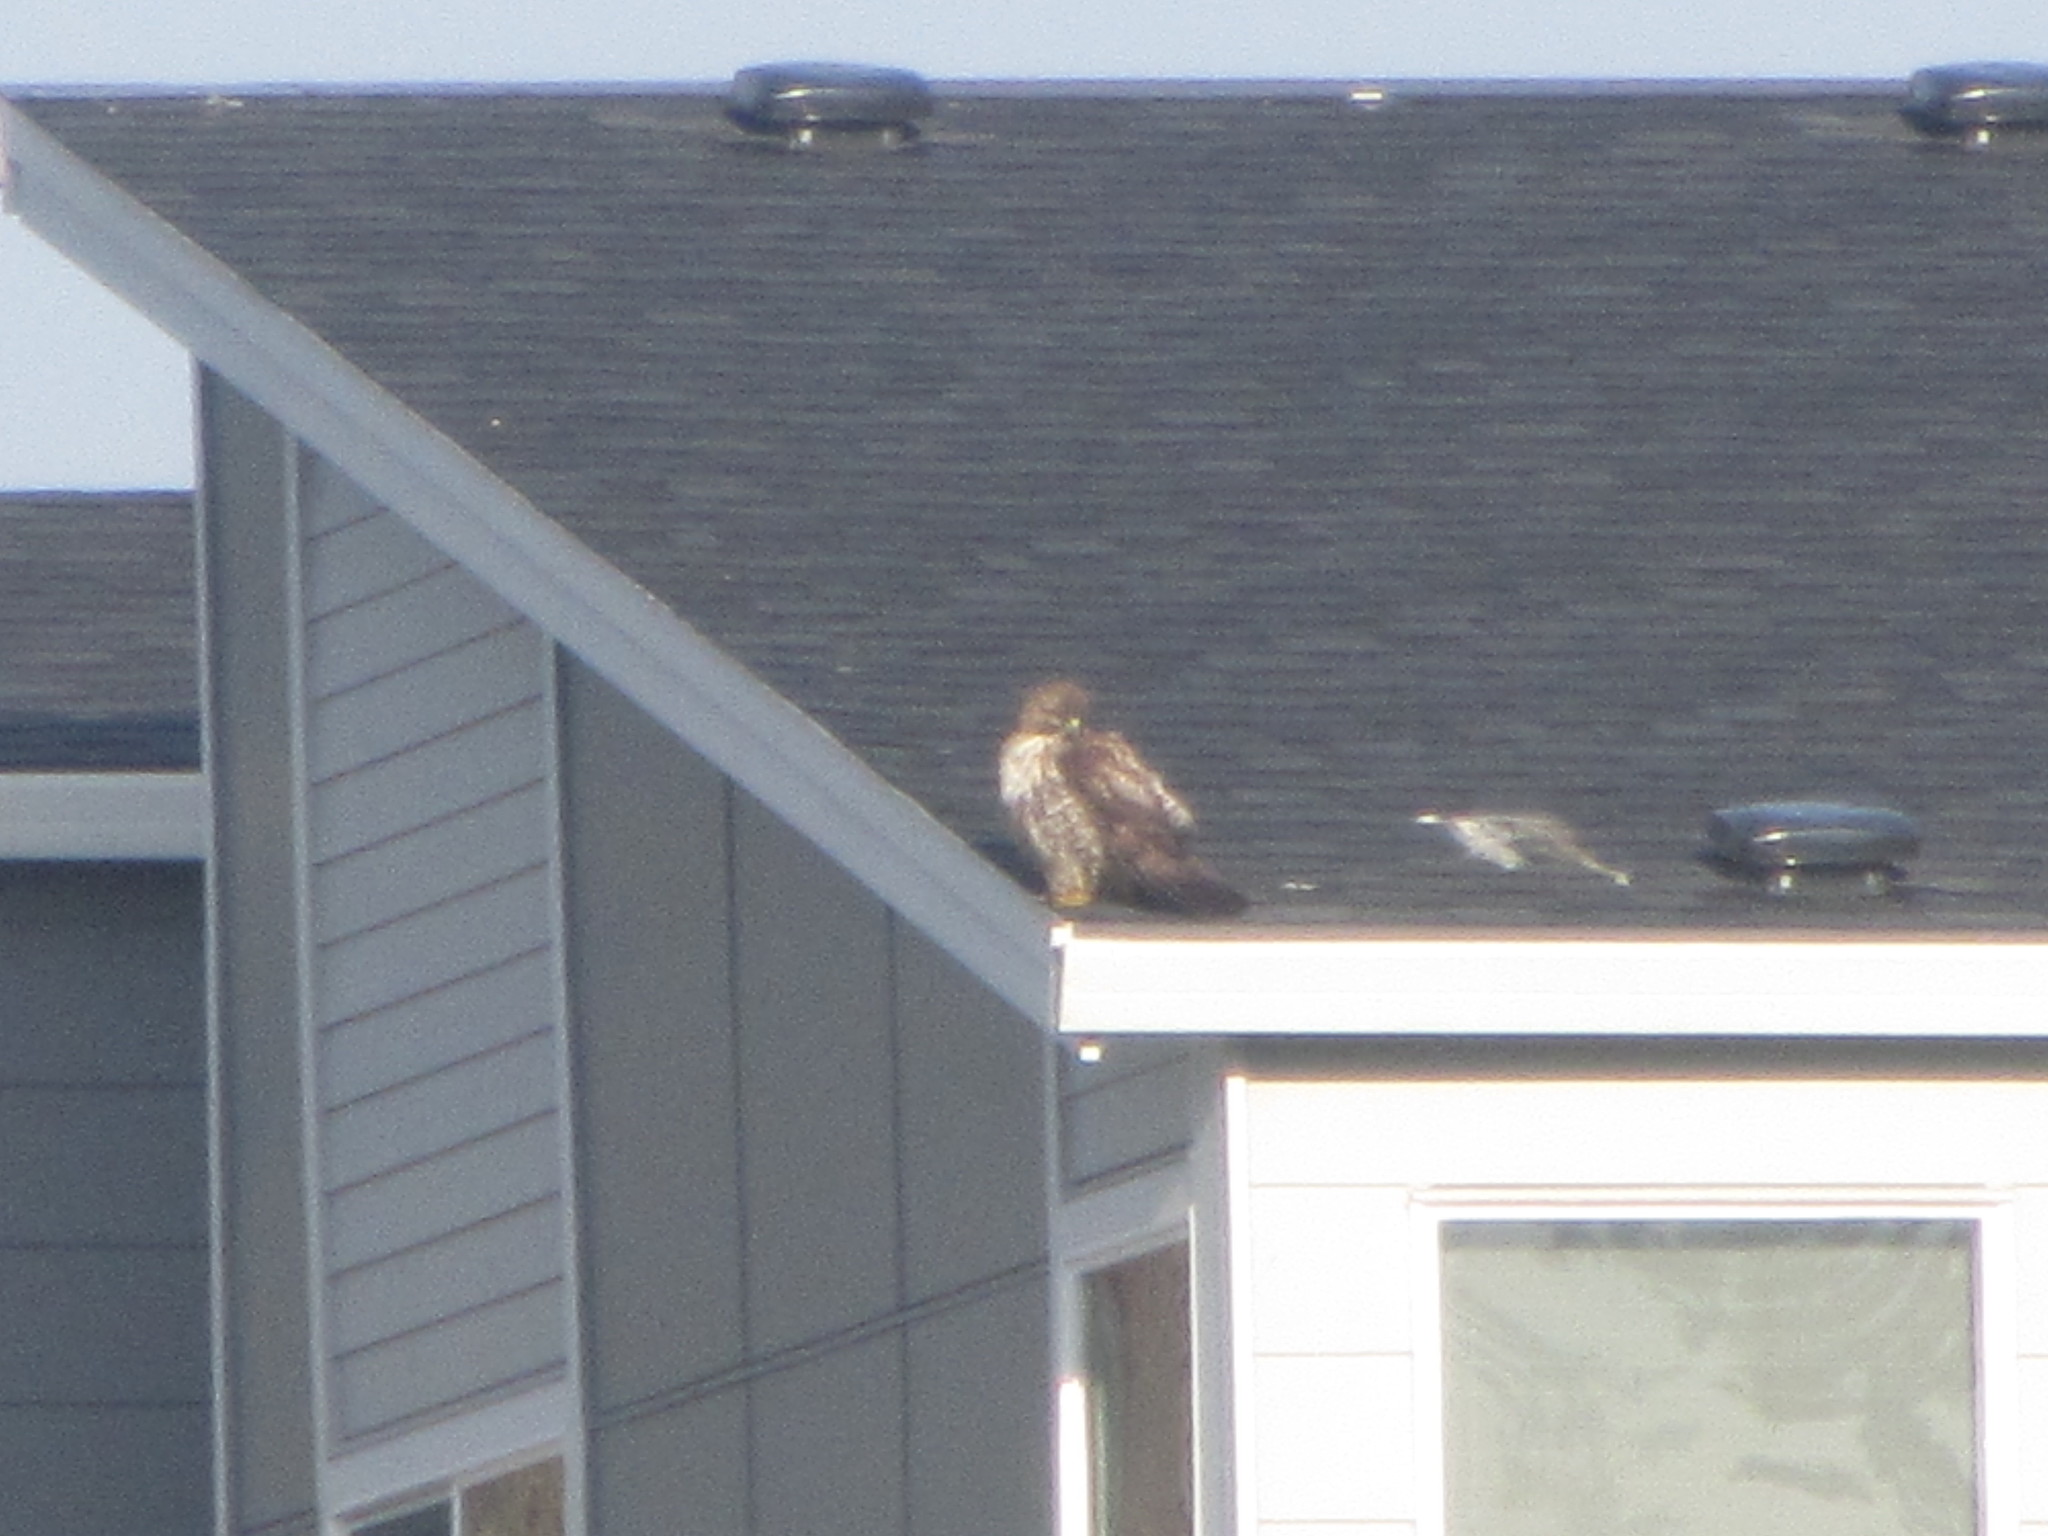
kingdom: Animalia
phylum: Chordata
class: Aves
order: Accipitriformes
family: Accipitridae
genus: Buteo
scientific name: Buteo jamaicensis
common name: Red-tailed hawk
